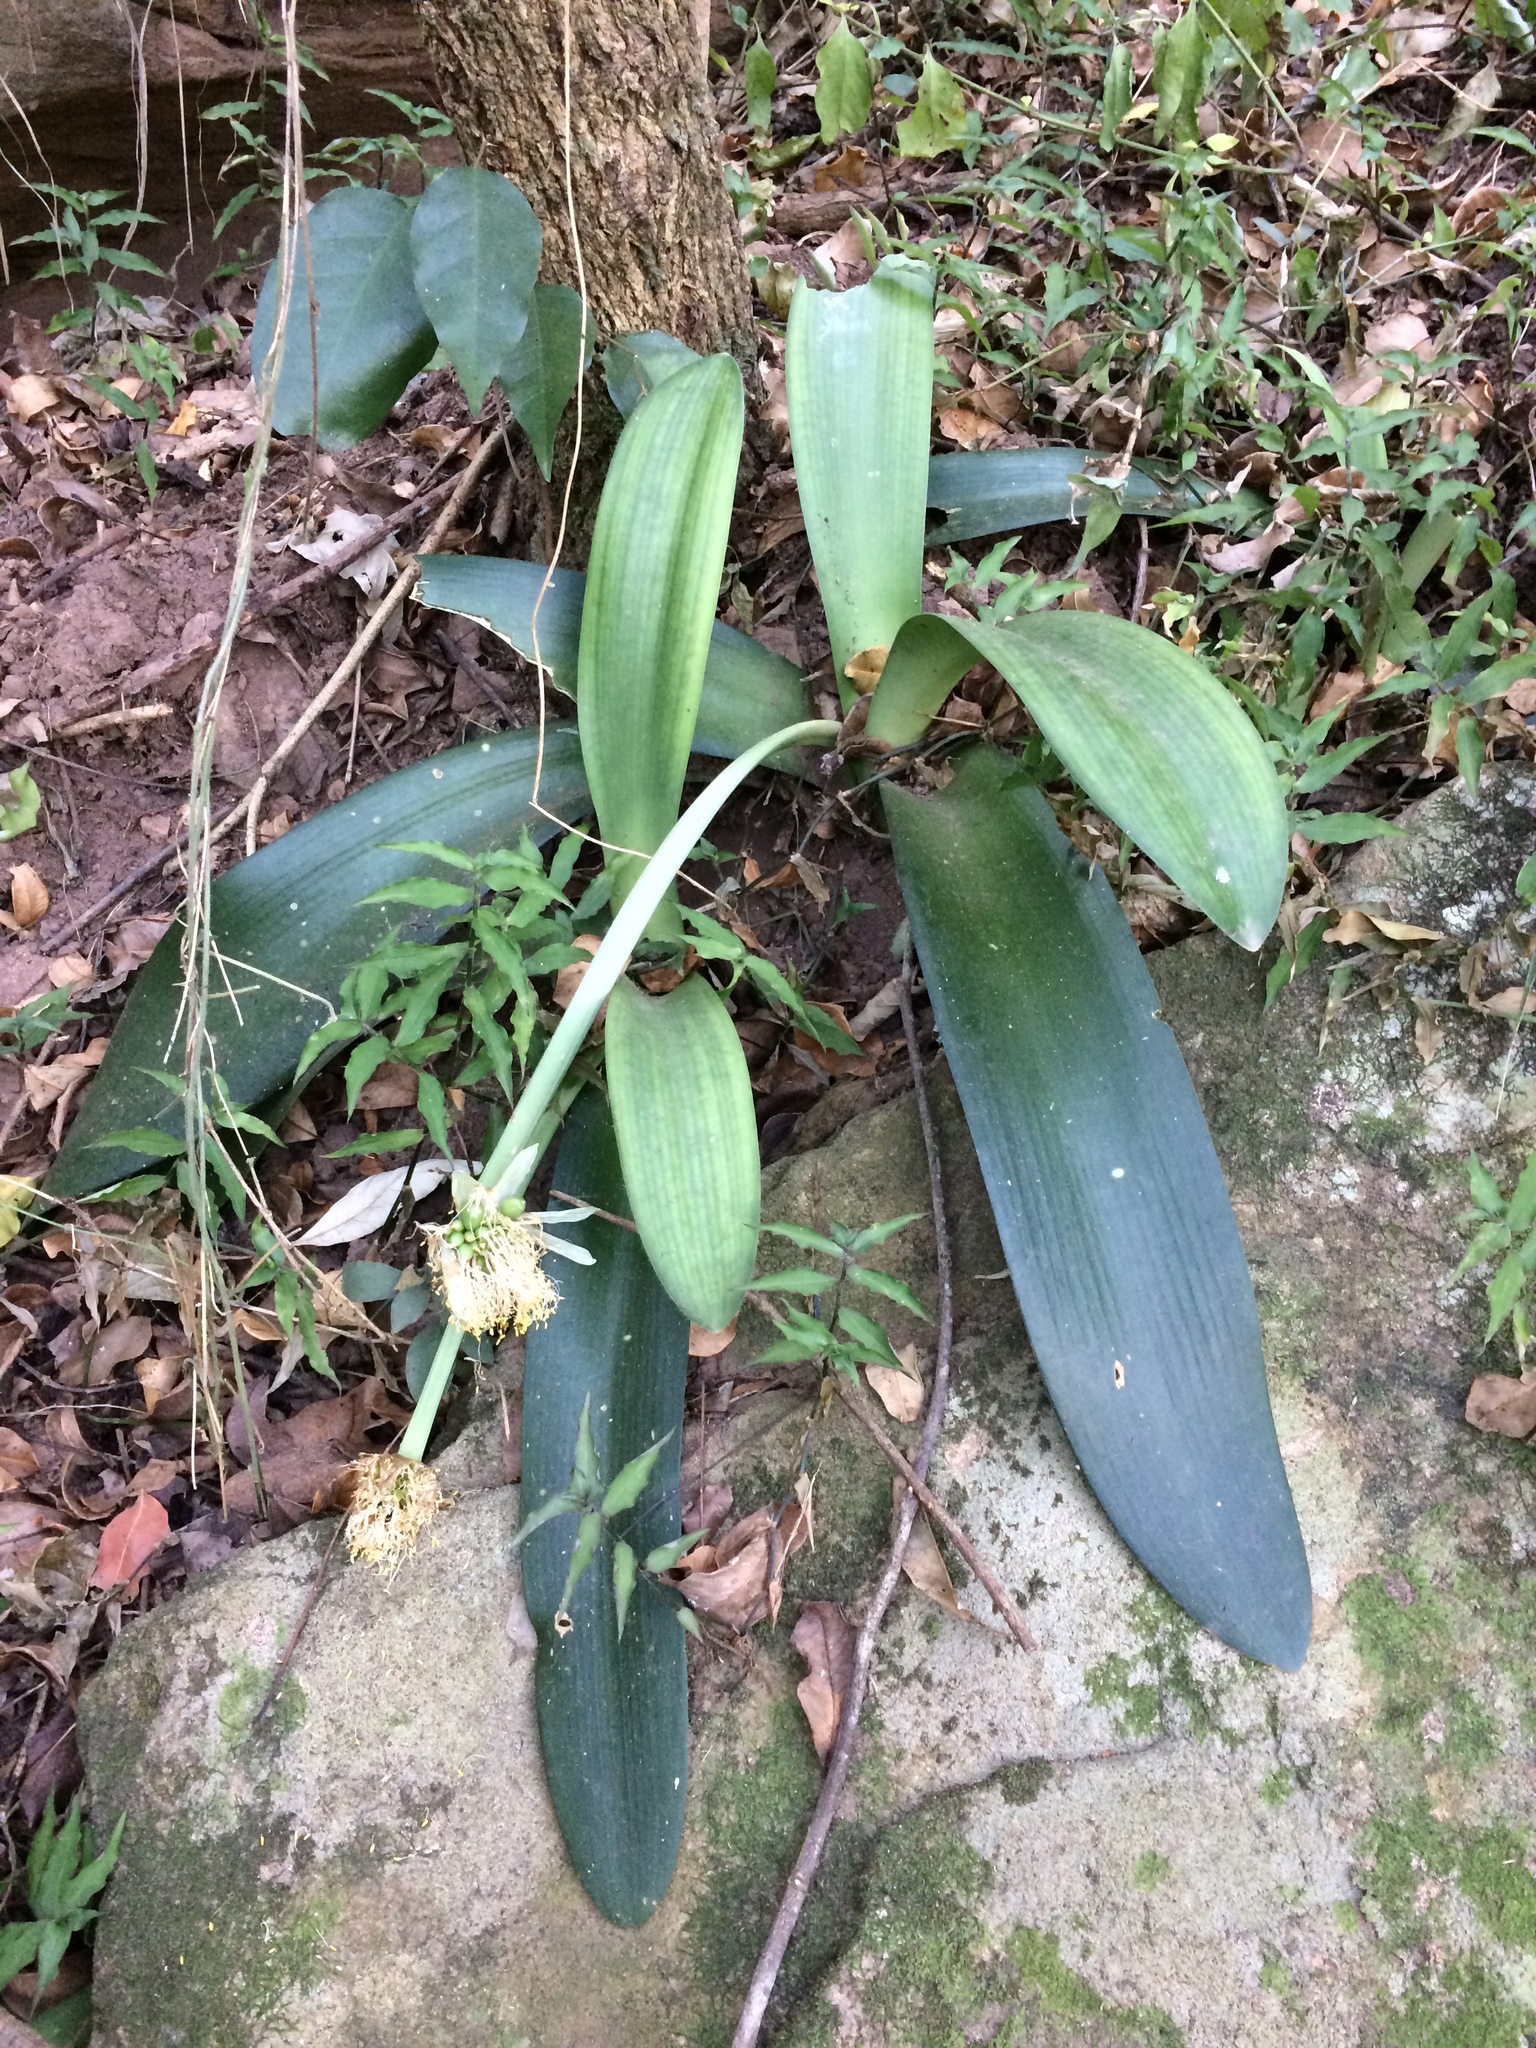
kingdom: Plantae
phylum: Tracheophyta
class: Liliopsida
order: Asparagales
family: Amaryllidaceae
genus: Haemanthus
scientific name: Haemanthus albiflos
